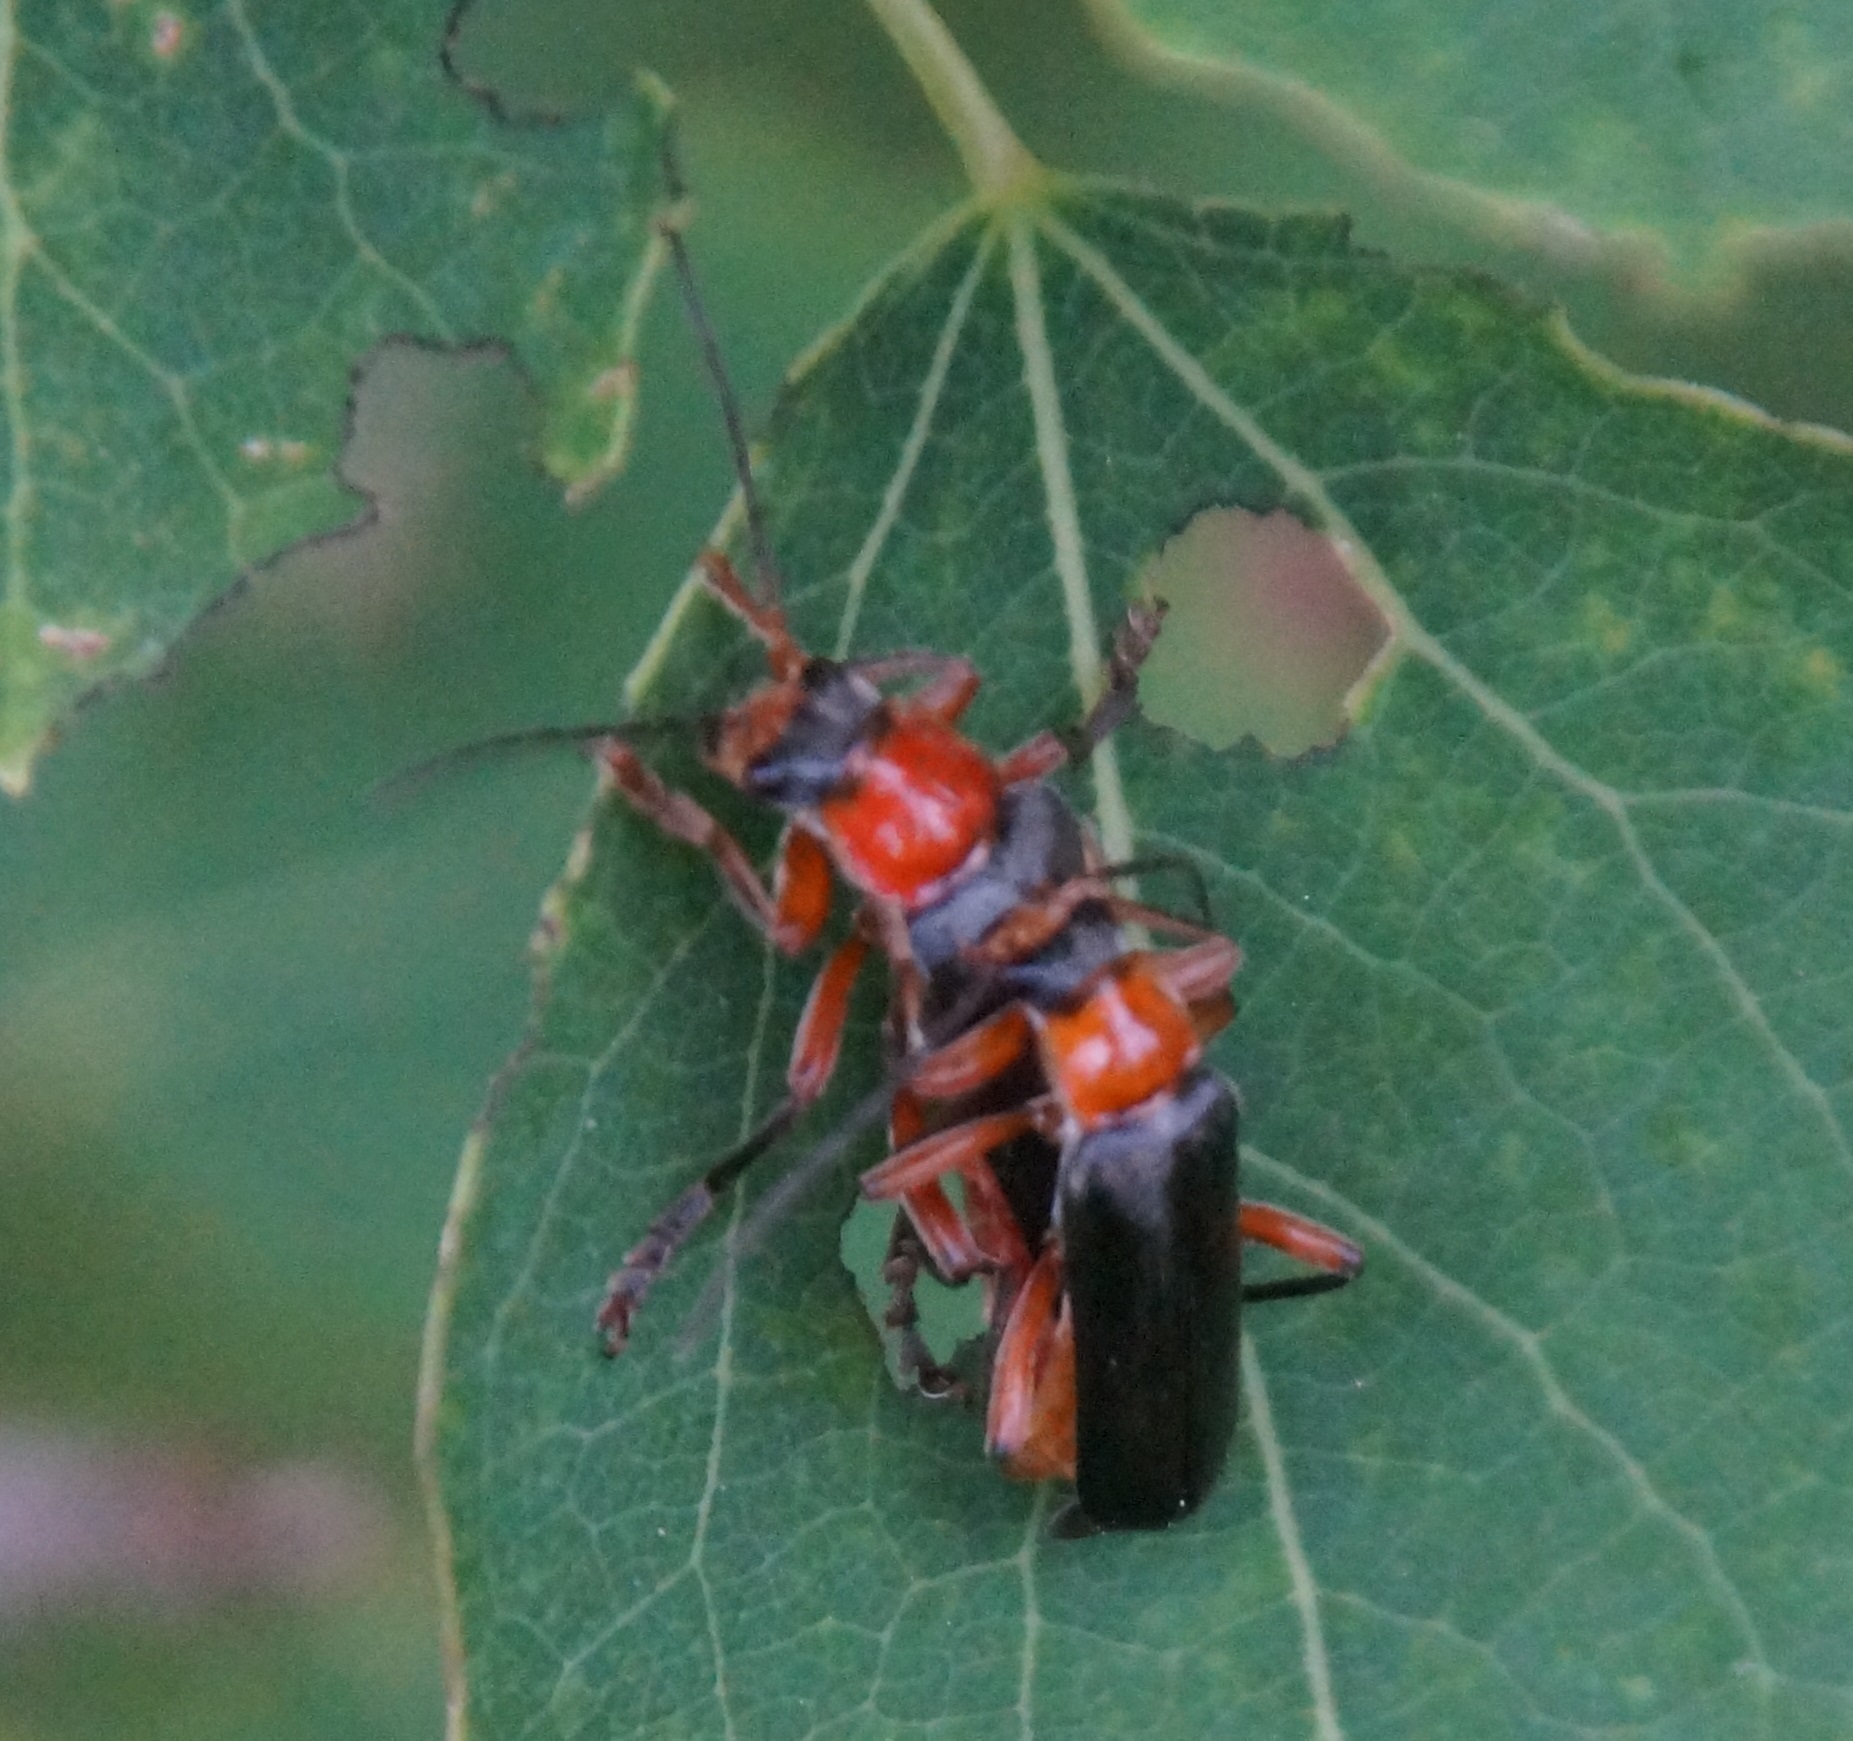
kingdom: Animalia
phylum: Arthropoda
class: Insecta
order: Coleoptera
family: Cantharidae
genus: Cantharis
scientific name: Cantharis pellucida
